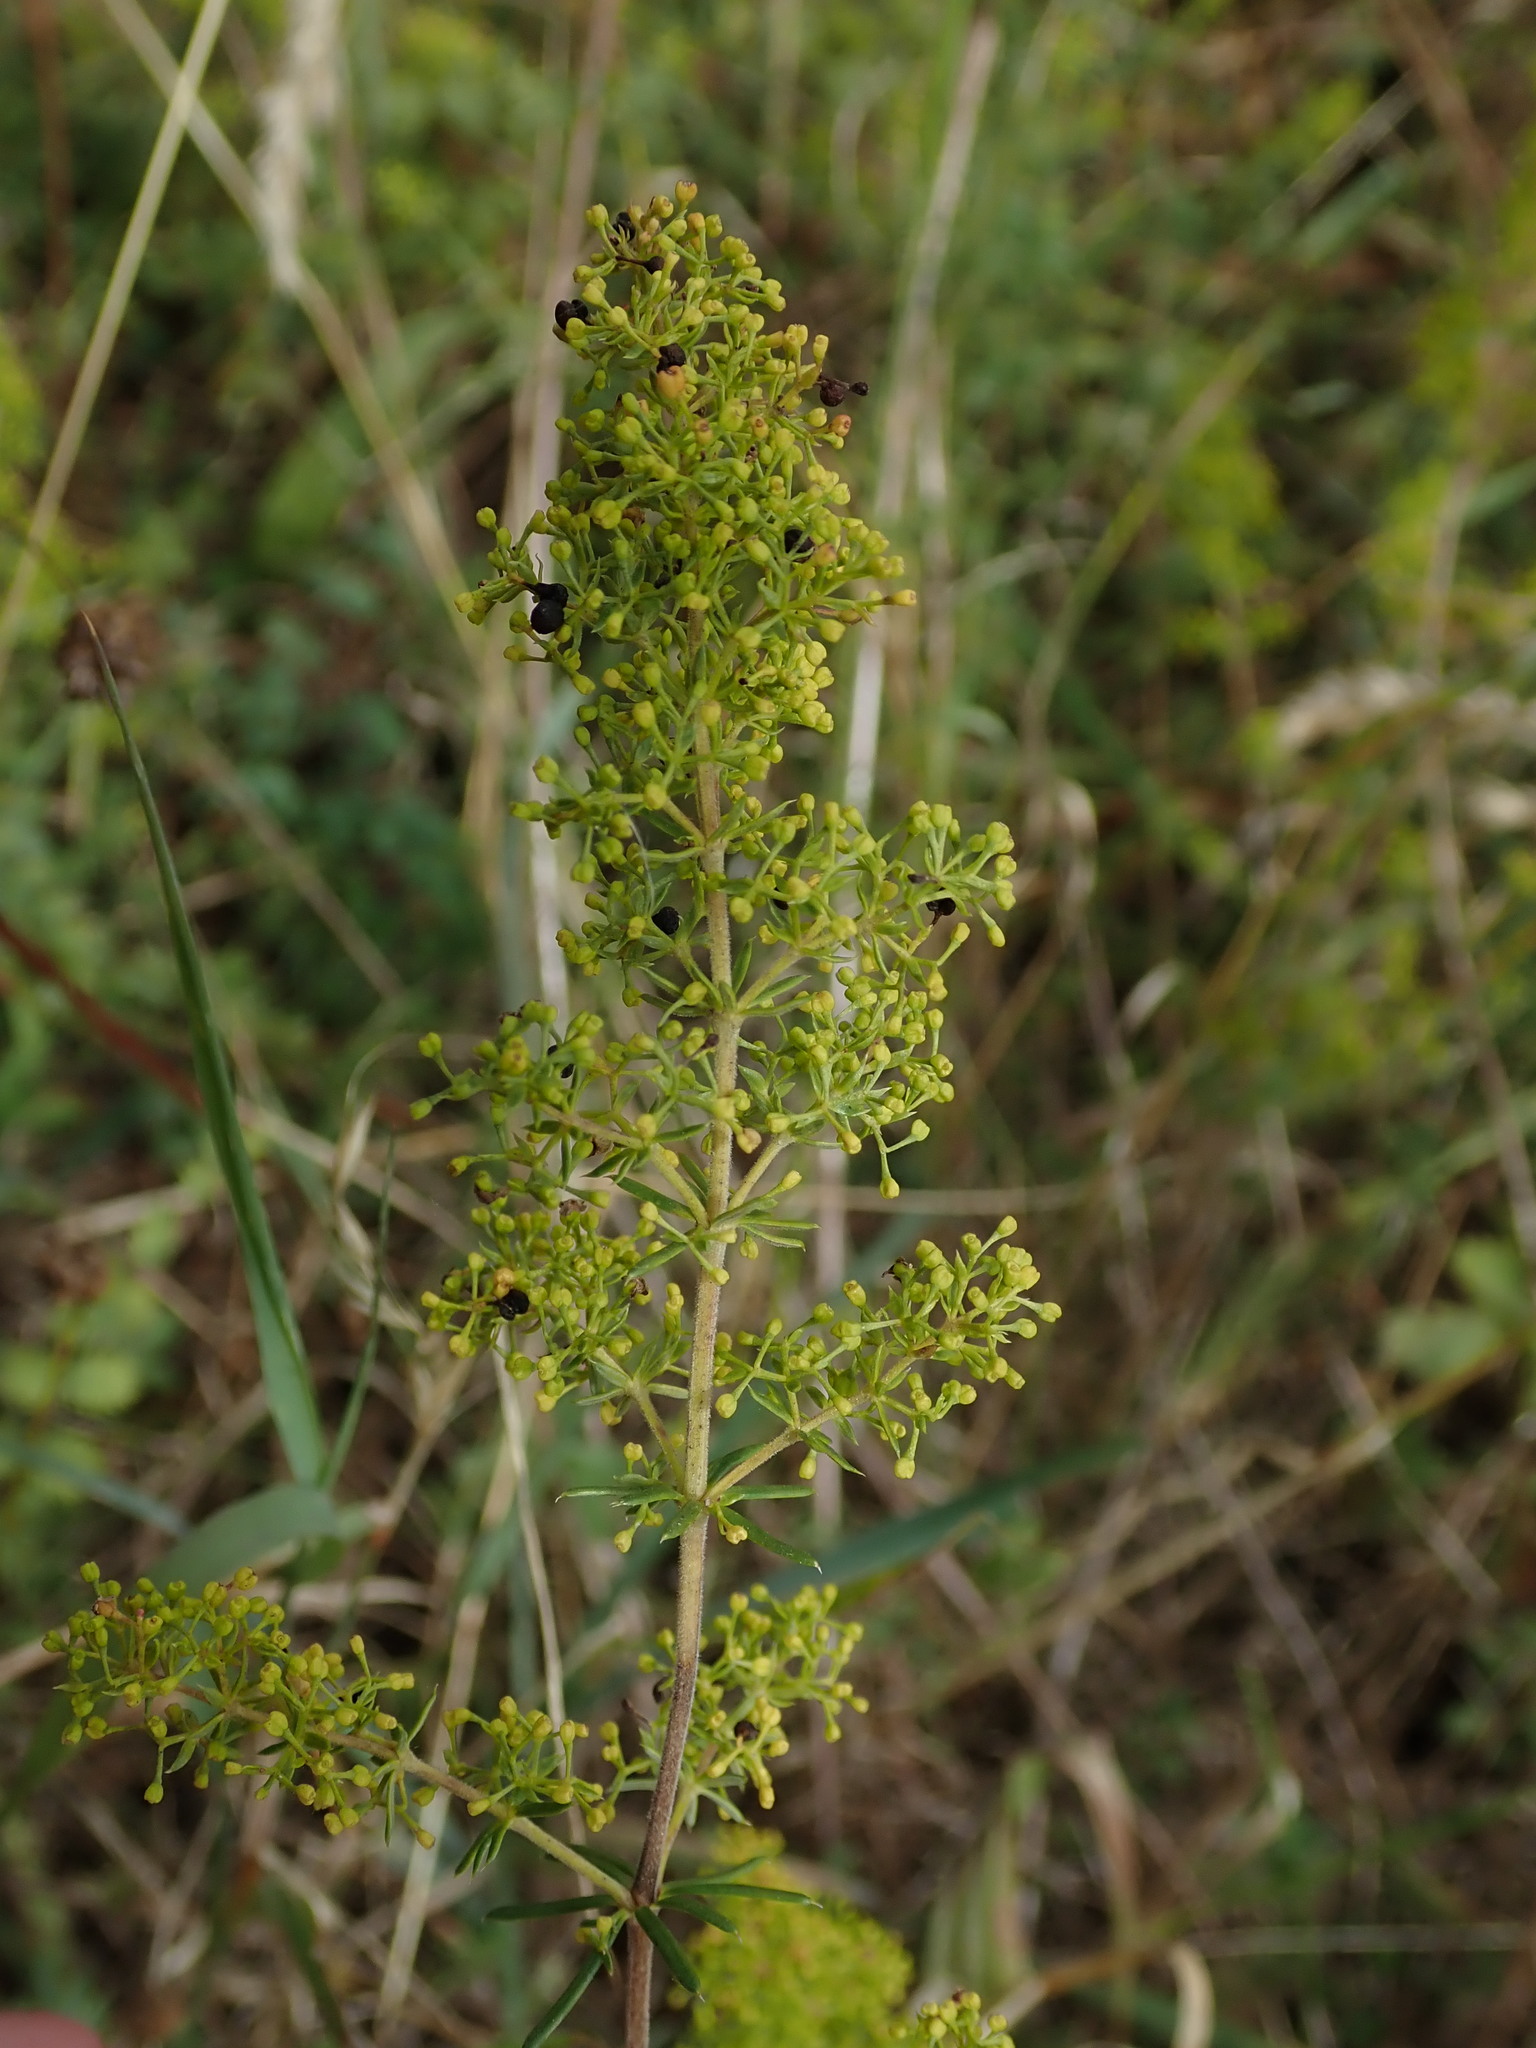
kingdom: Plantae
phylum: Tracheophyta
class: Magnoliopsida
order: Gentianales
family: Rubiaceae
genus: Galium
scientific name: Galium verum
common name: Lady's bedstraw
